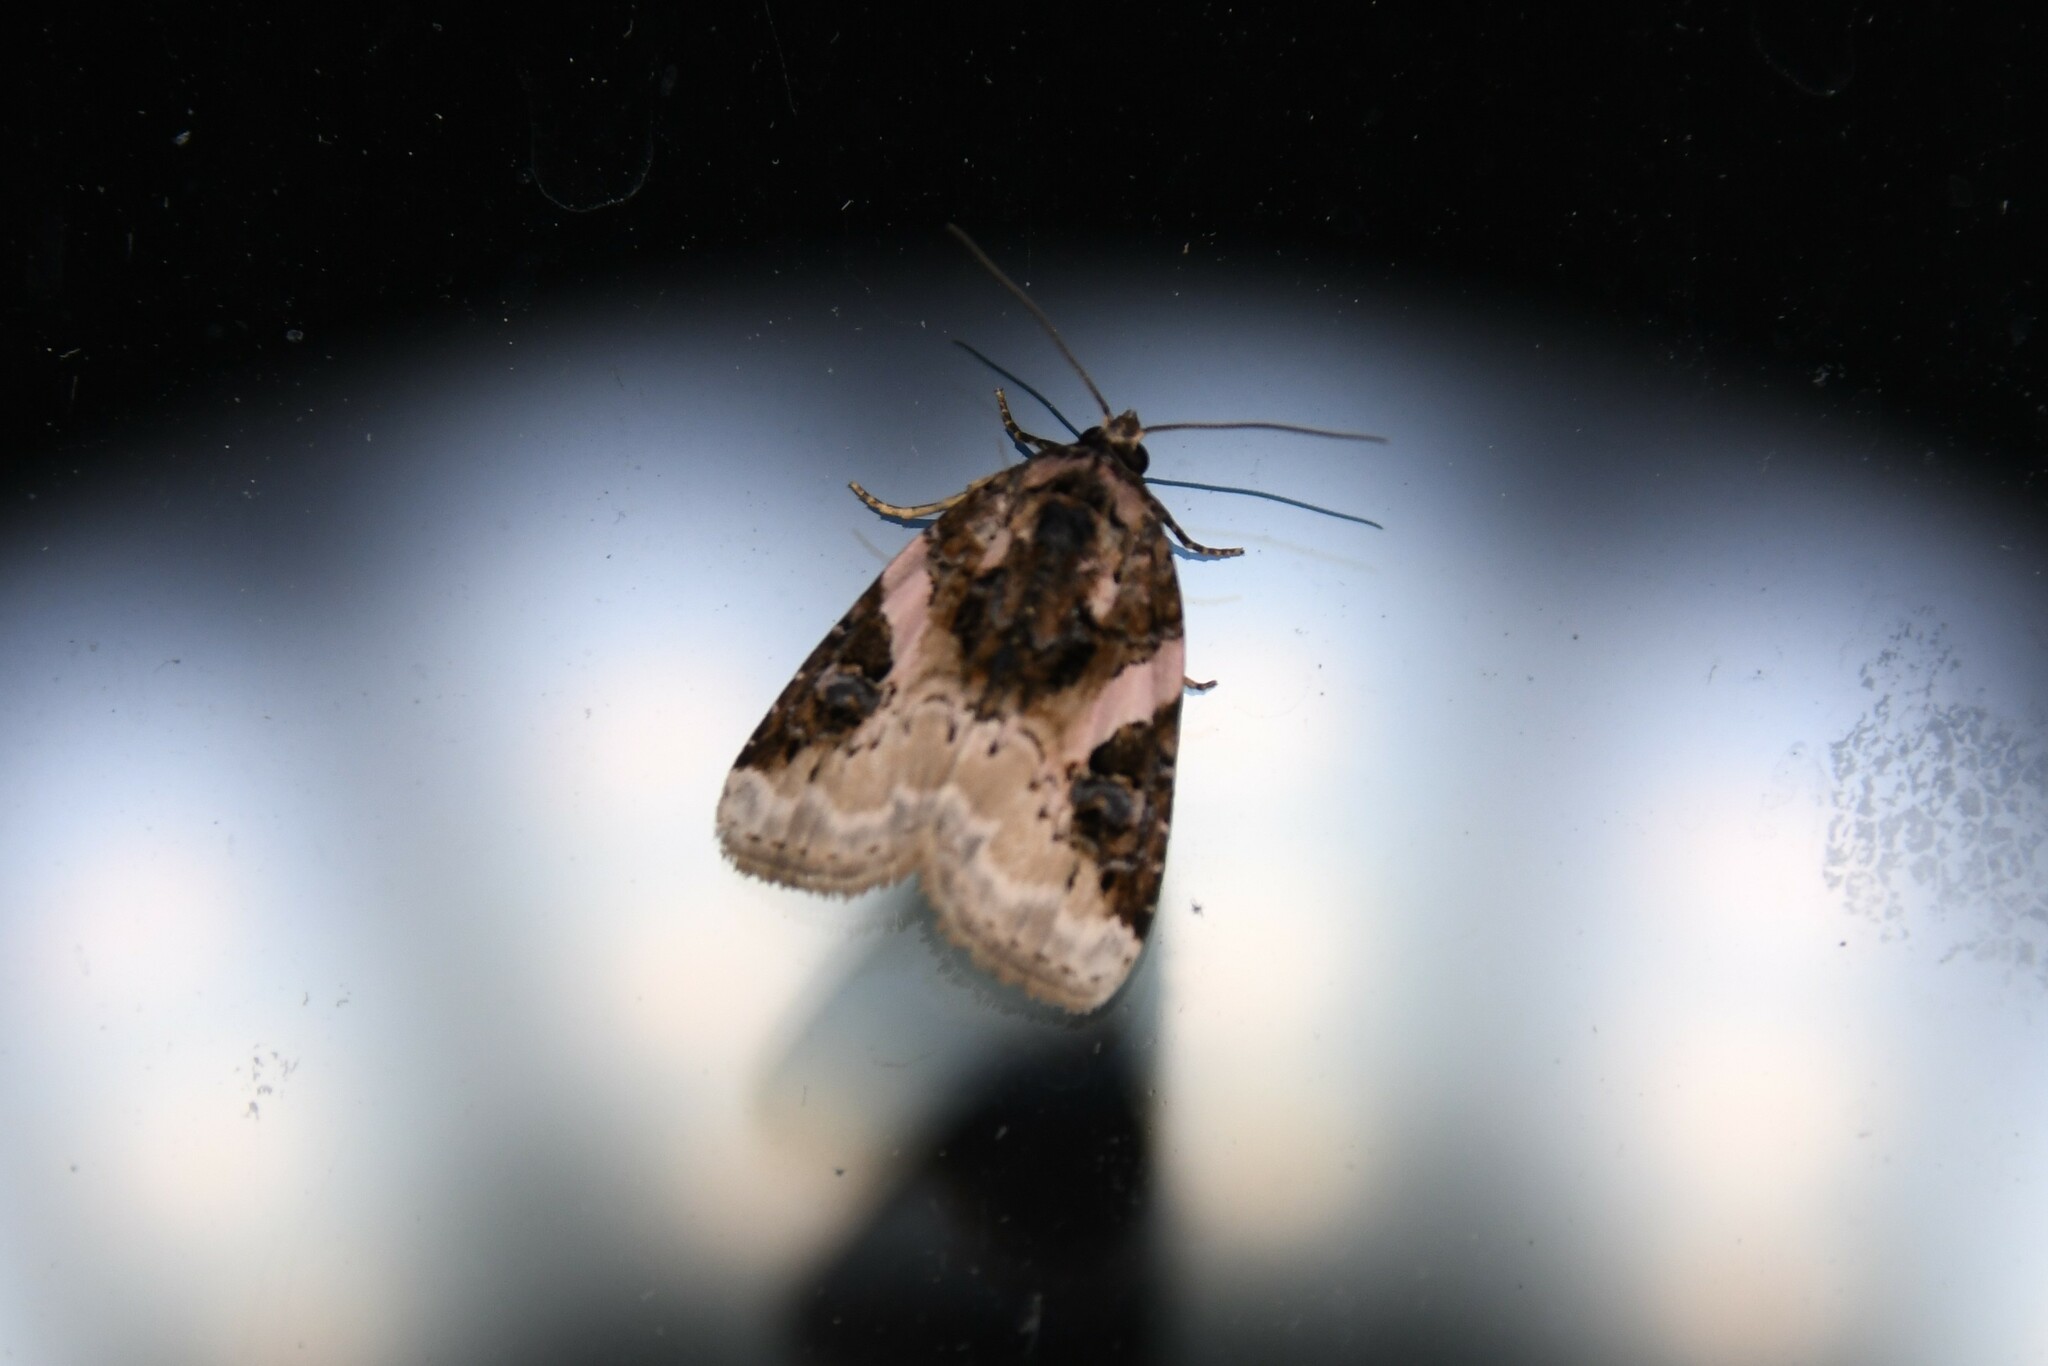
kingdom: Animalia
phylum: Arthropoda
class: Insecta
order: Lepidoptera
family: Noctuidae
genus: Pseudeustrotia
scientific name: Pseudeustrotia carneola
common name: Pink-barred lithacodia moth
